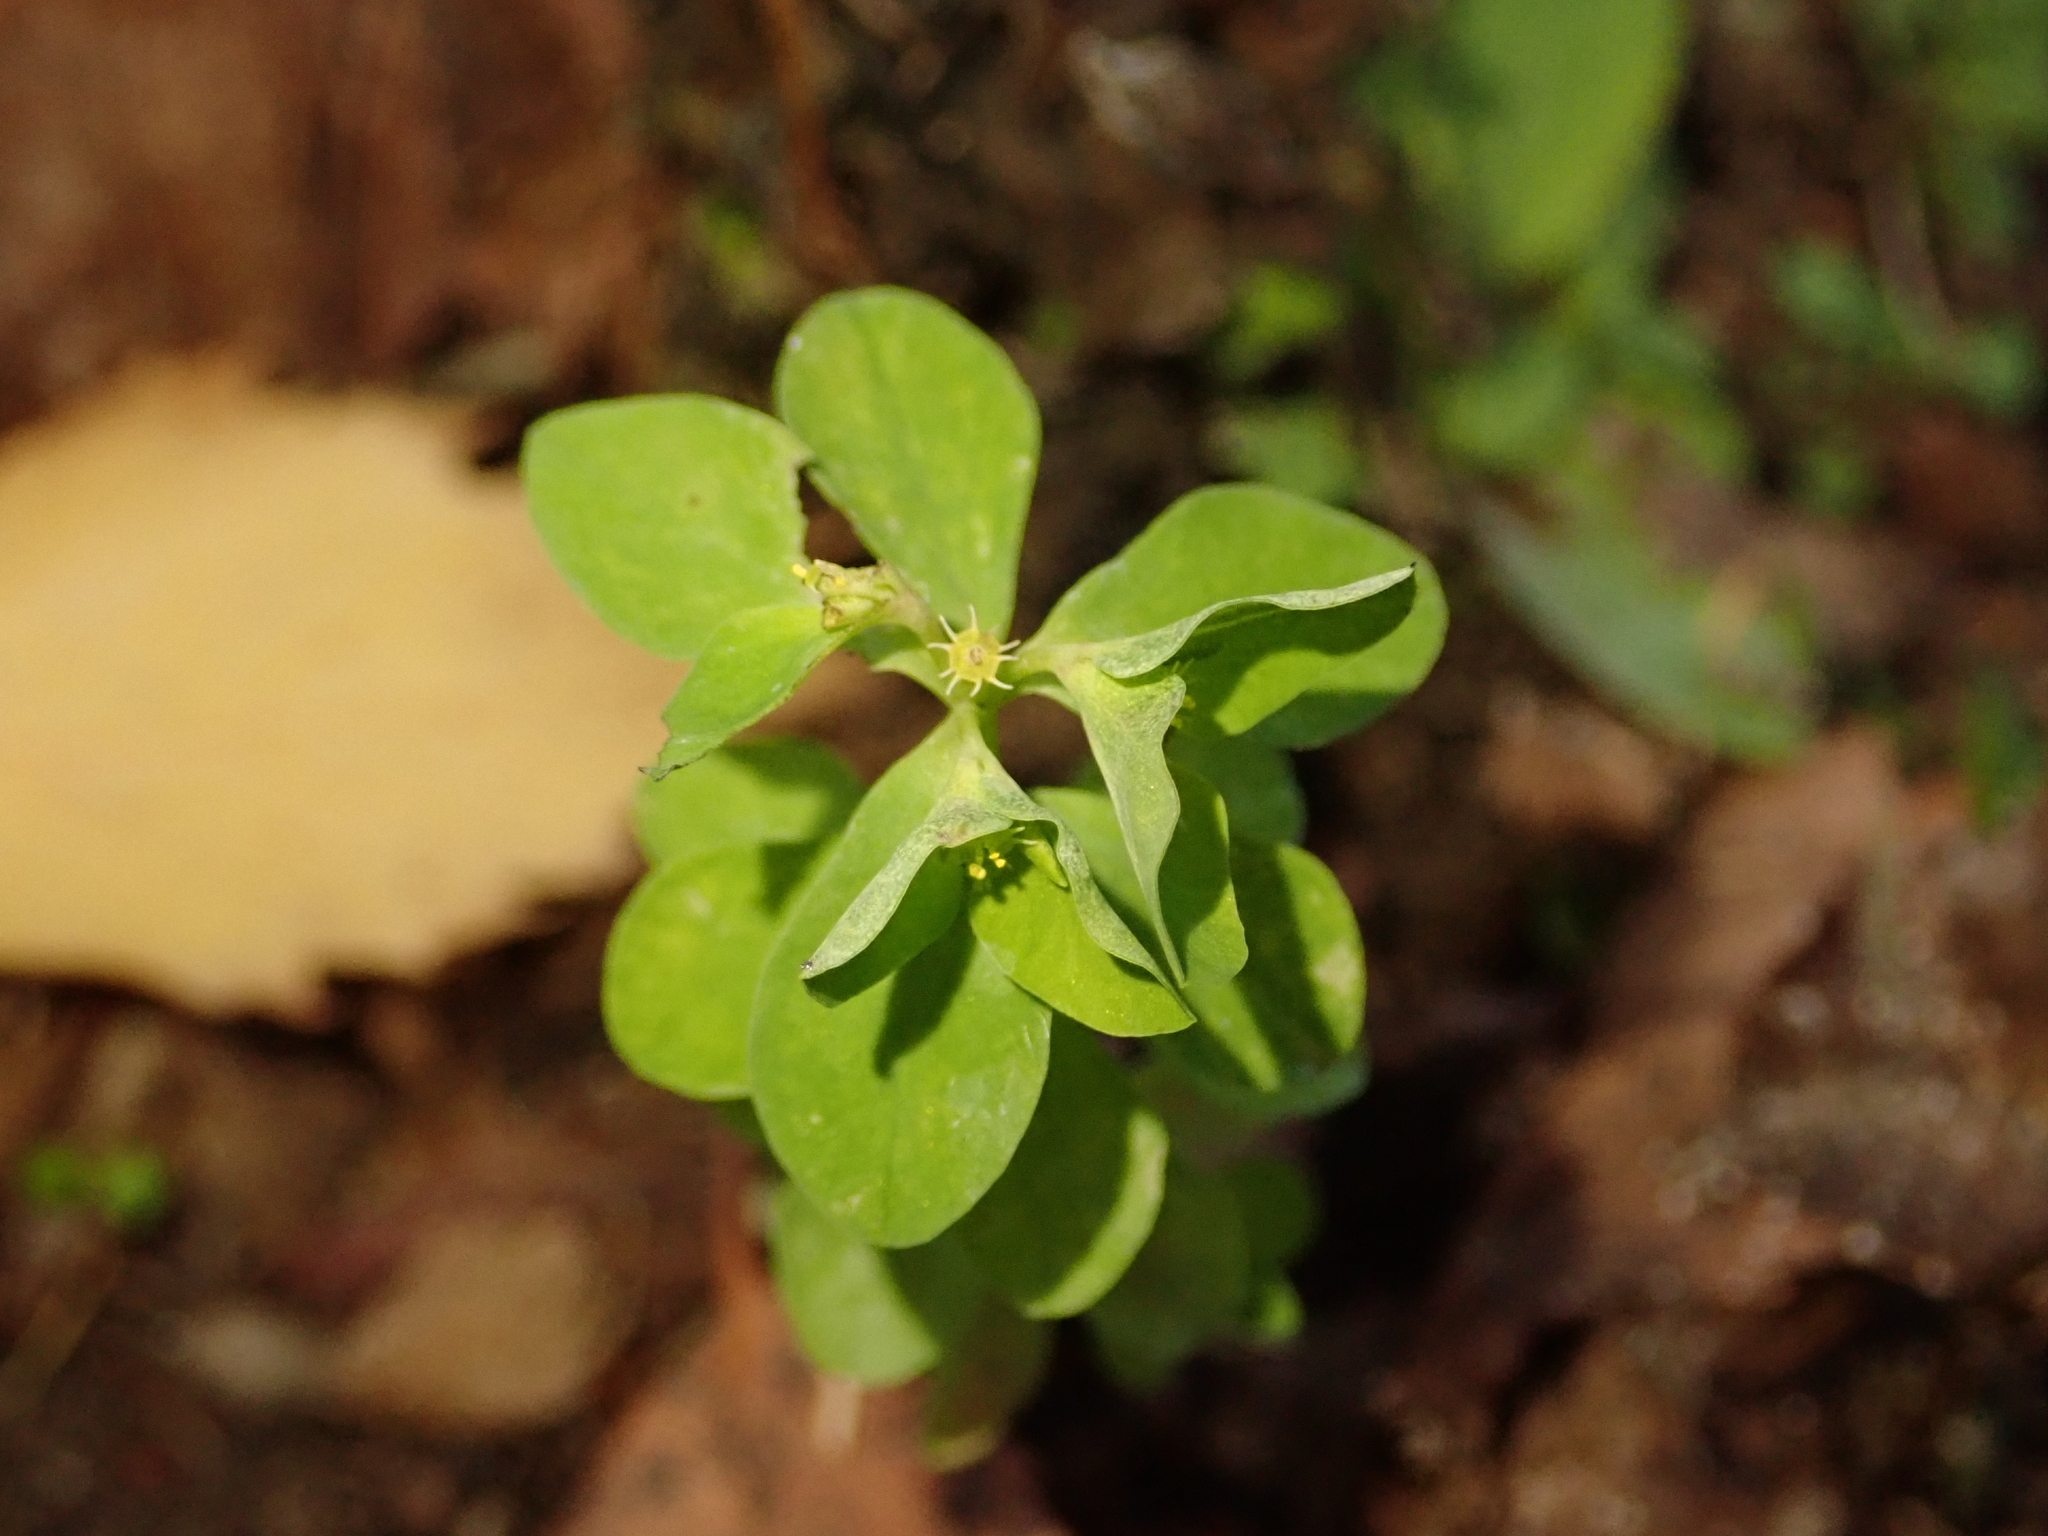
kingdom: Plantae
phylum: Tracheophyta
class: Magnoliopsida
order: Malpighiales
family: Euphorbiaceae
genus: Euphorbia
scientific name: Euphorbia peplus
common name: Petty spurge
